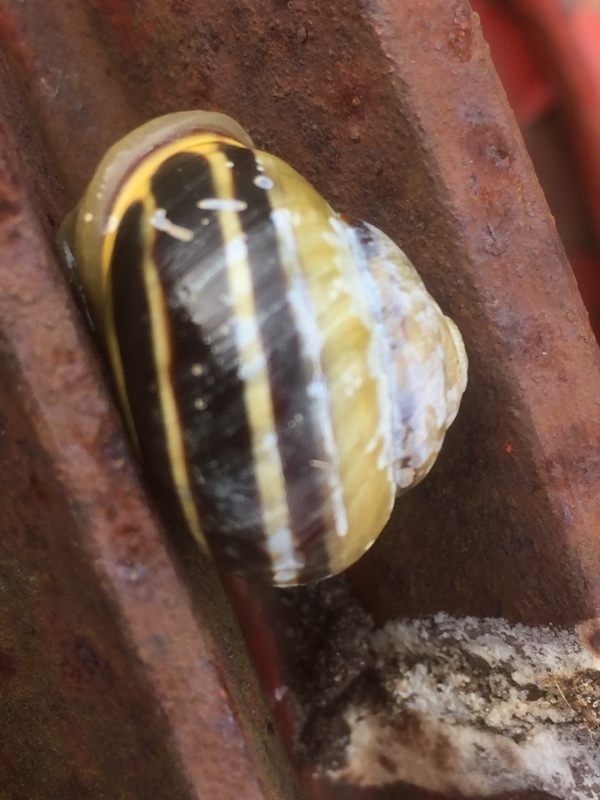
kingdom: Animalia
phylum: Mollusca
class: Gastropoda
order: Stylommatophora
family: Helicidae
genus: Cepaea
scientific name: Cepaea nemoralis
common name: Grovesnail
